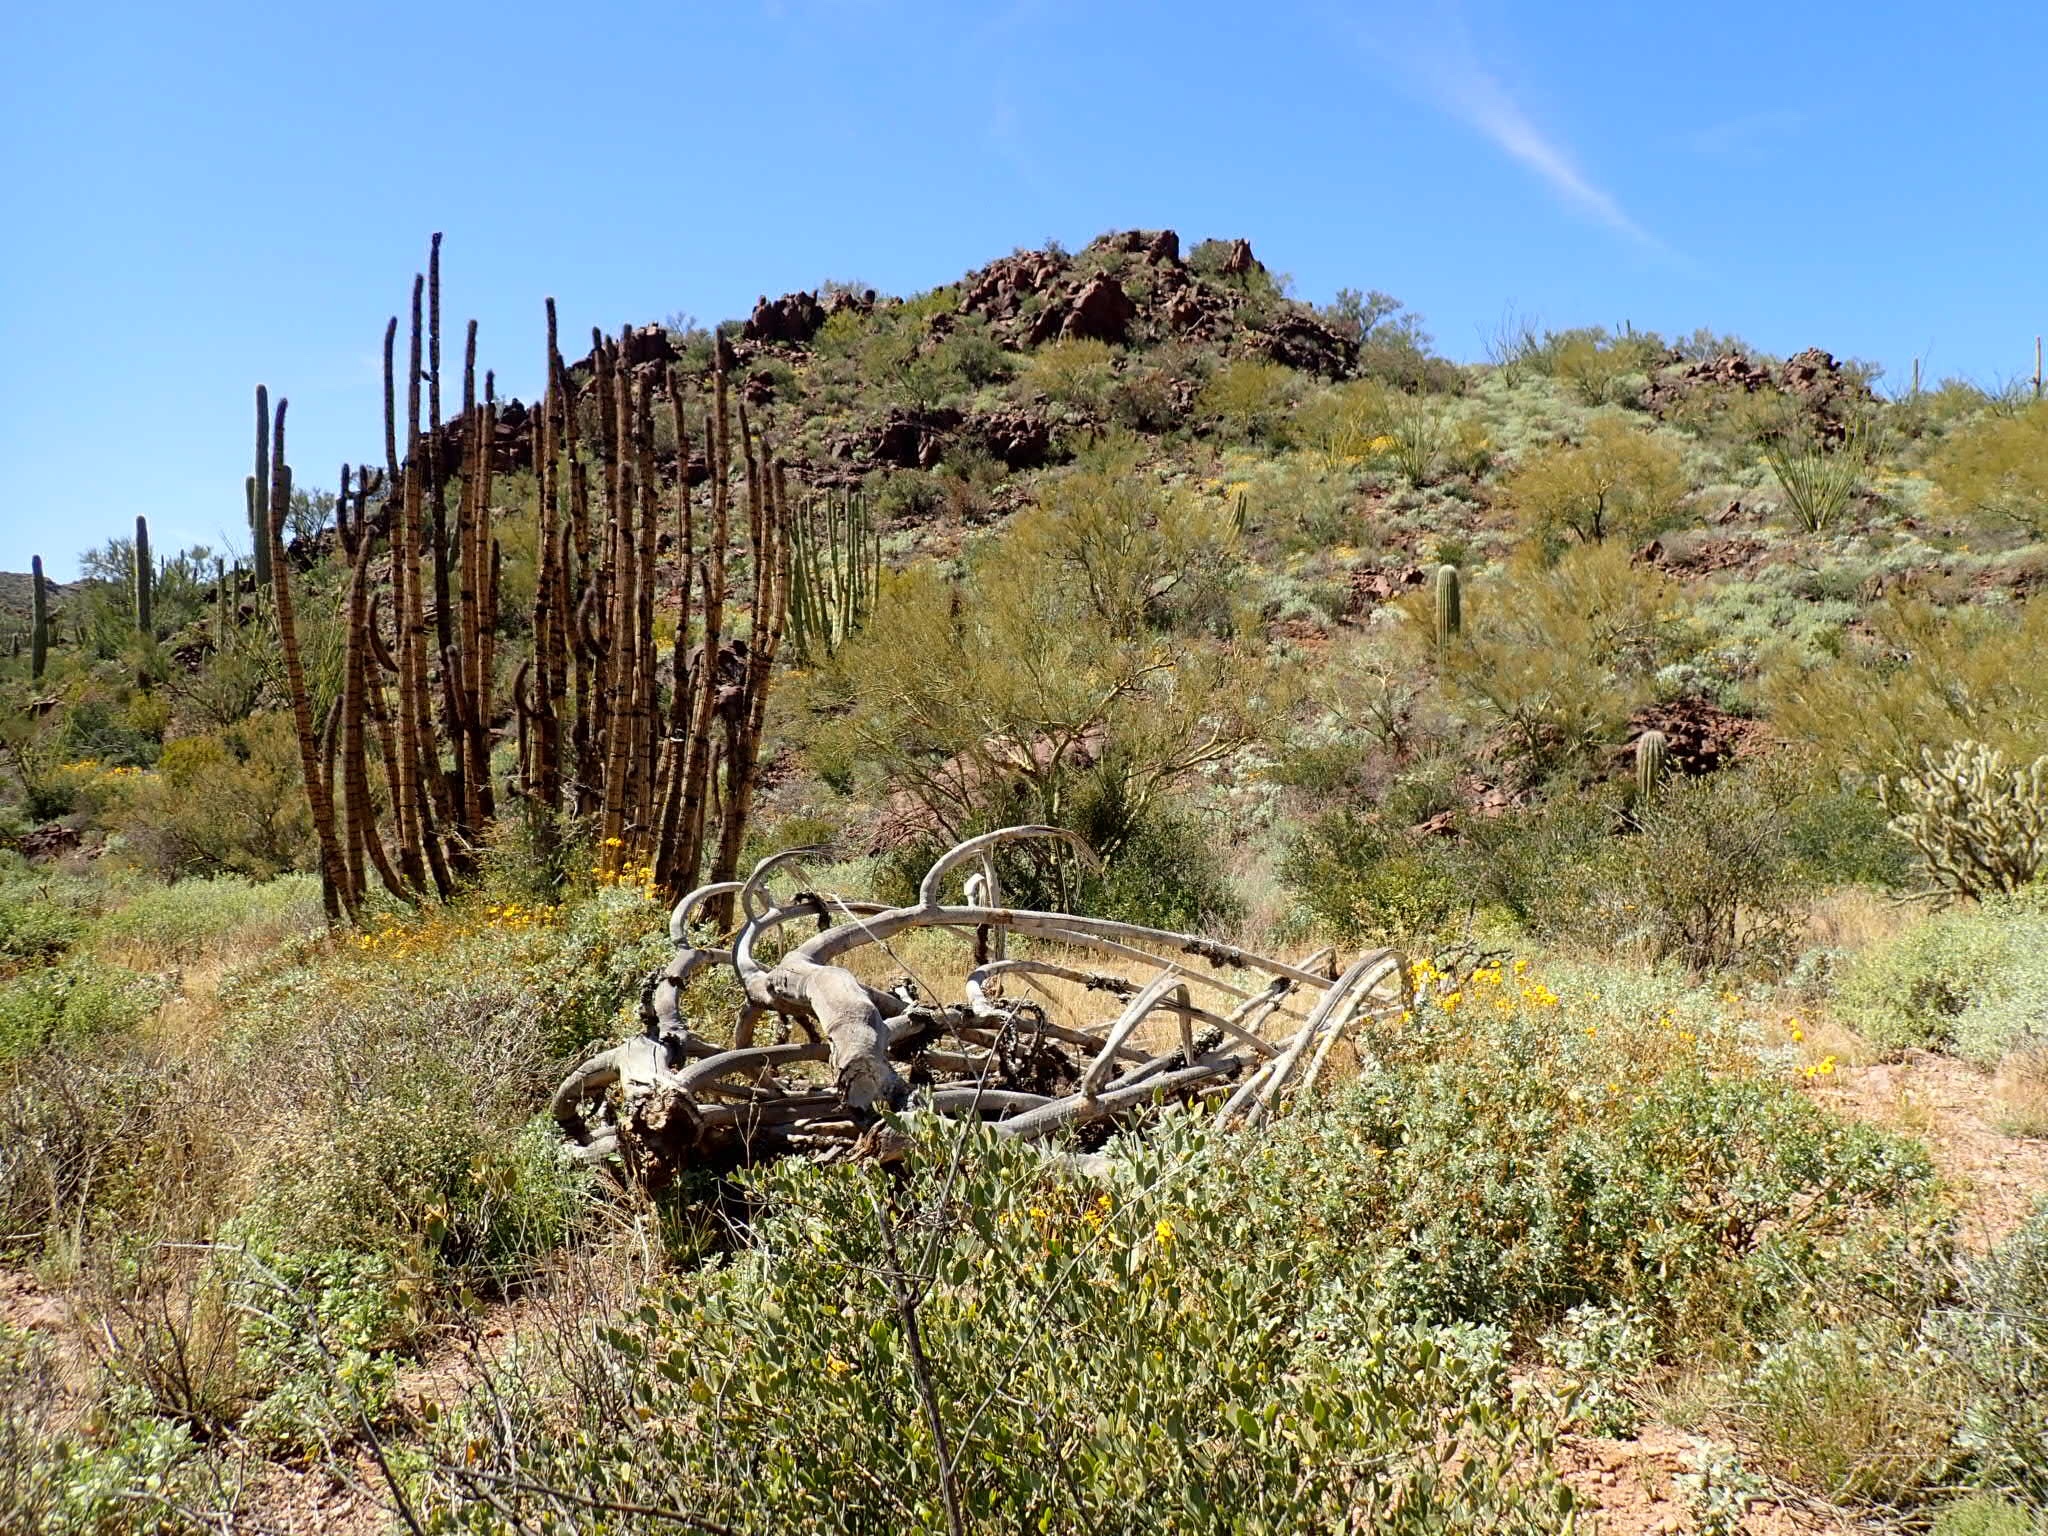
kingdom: Plantae
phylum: Tracheophyta
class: Magnoliopsida
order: Caryophyllales
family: Cactaceae
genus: Stenocereus
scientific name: Stenocereus thurberi
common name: Organ pipe cactus
